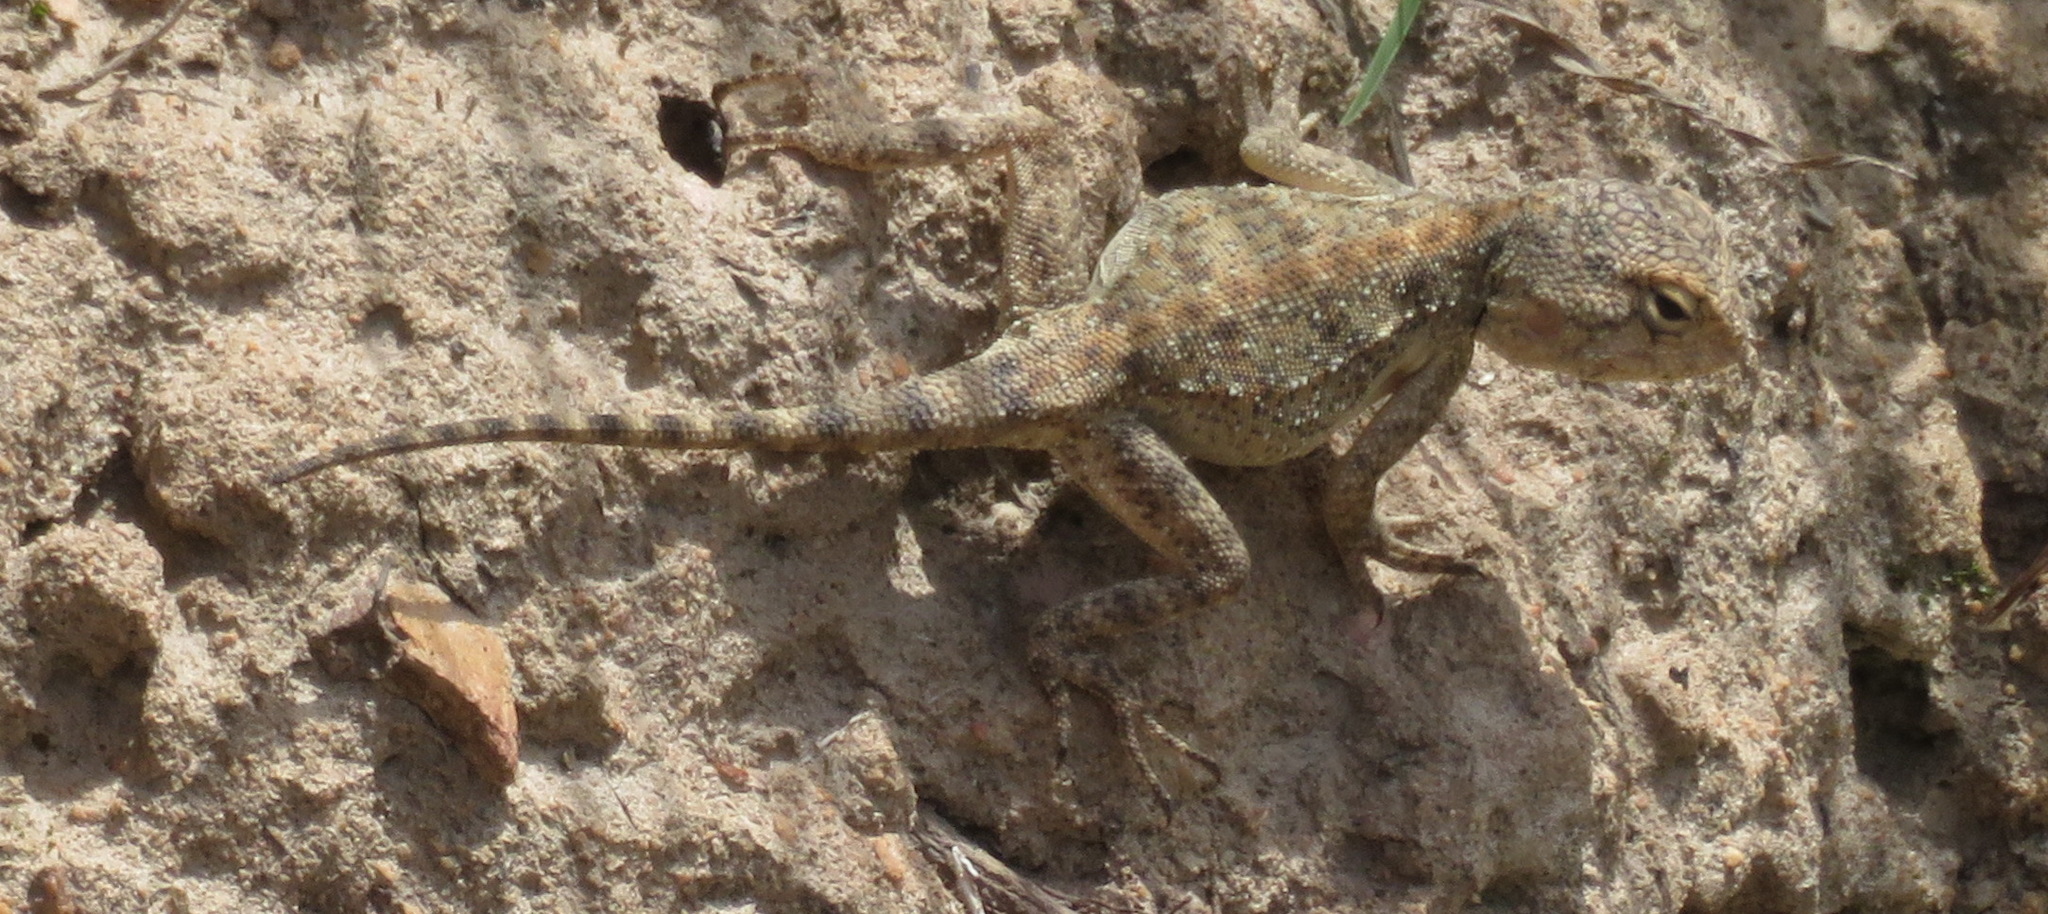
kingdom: Animalia
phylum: Chordata
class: Squamata
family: Agamidae
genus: Agama
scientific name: Agama atra
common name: Southern african rock agama
